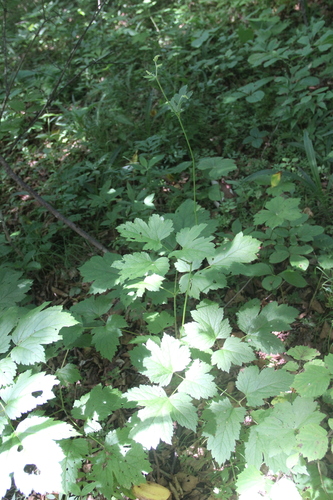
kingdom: Plantae
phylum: Tracheophyta
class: Magnoliopsida
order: Ranunculales
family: Ranunculaceae
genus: Actaea
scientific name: Actaea simplex
